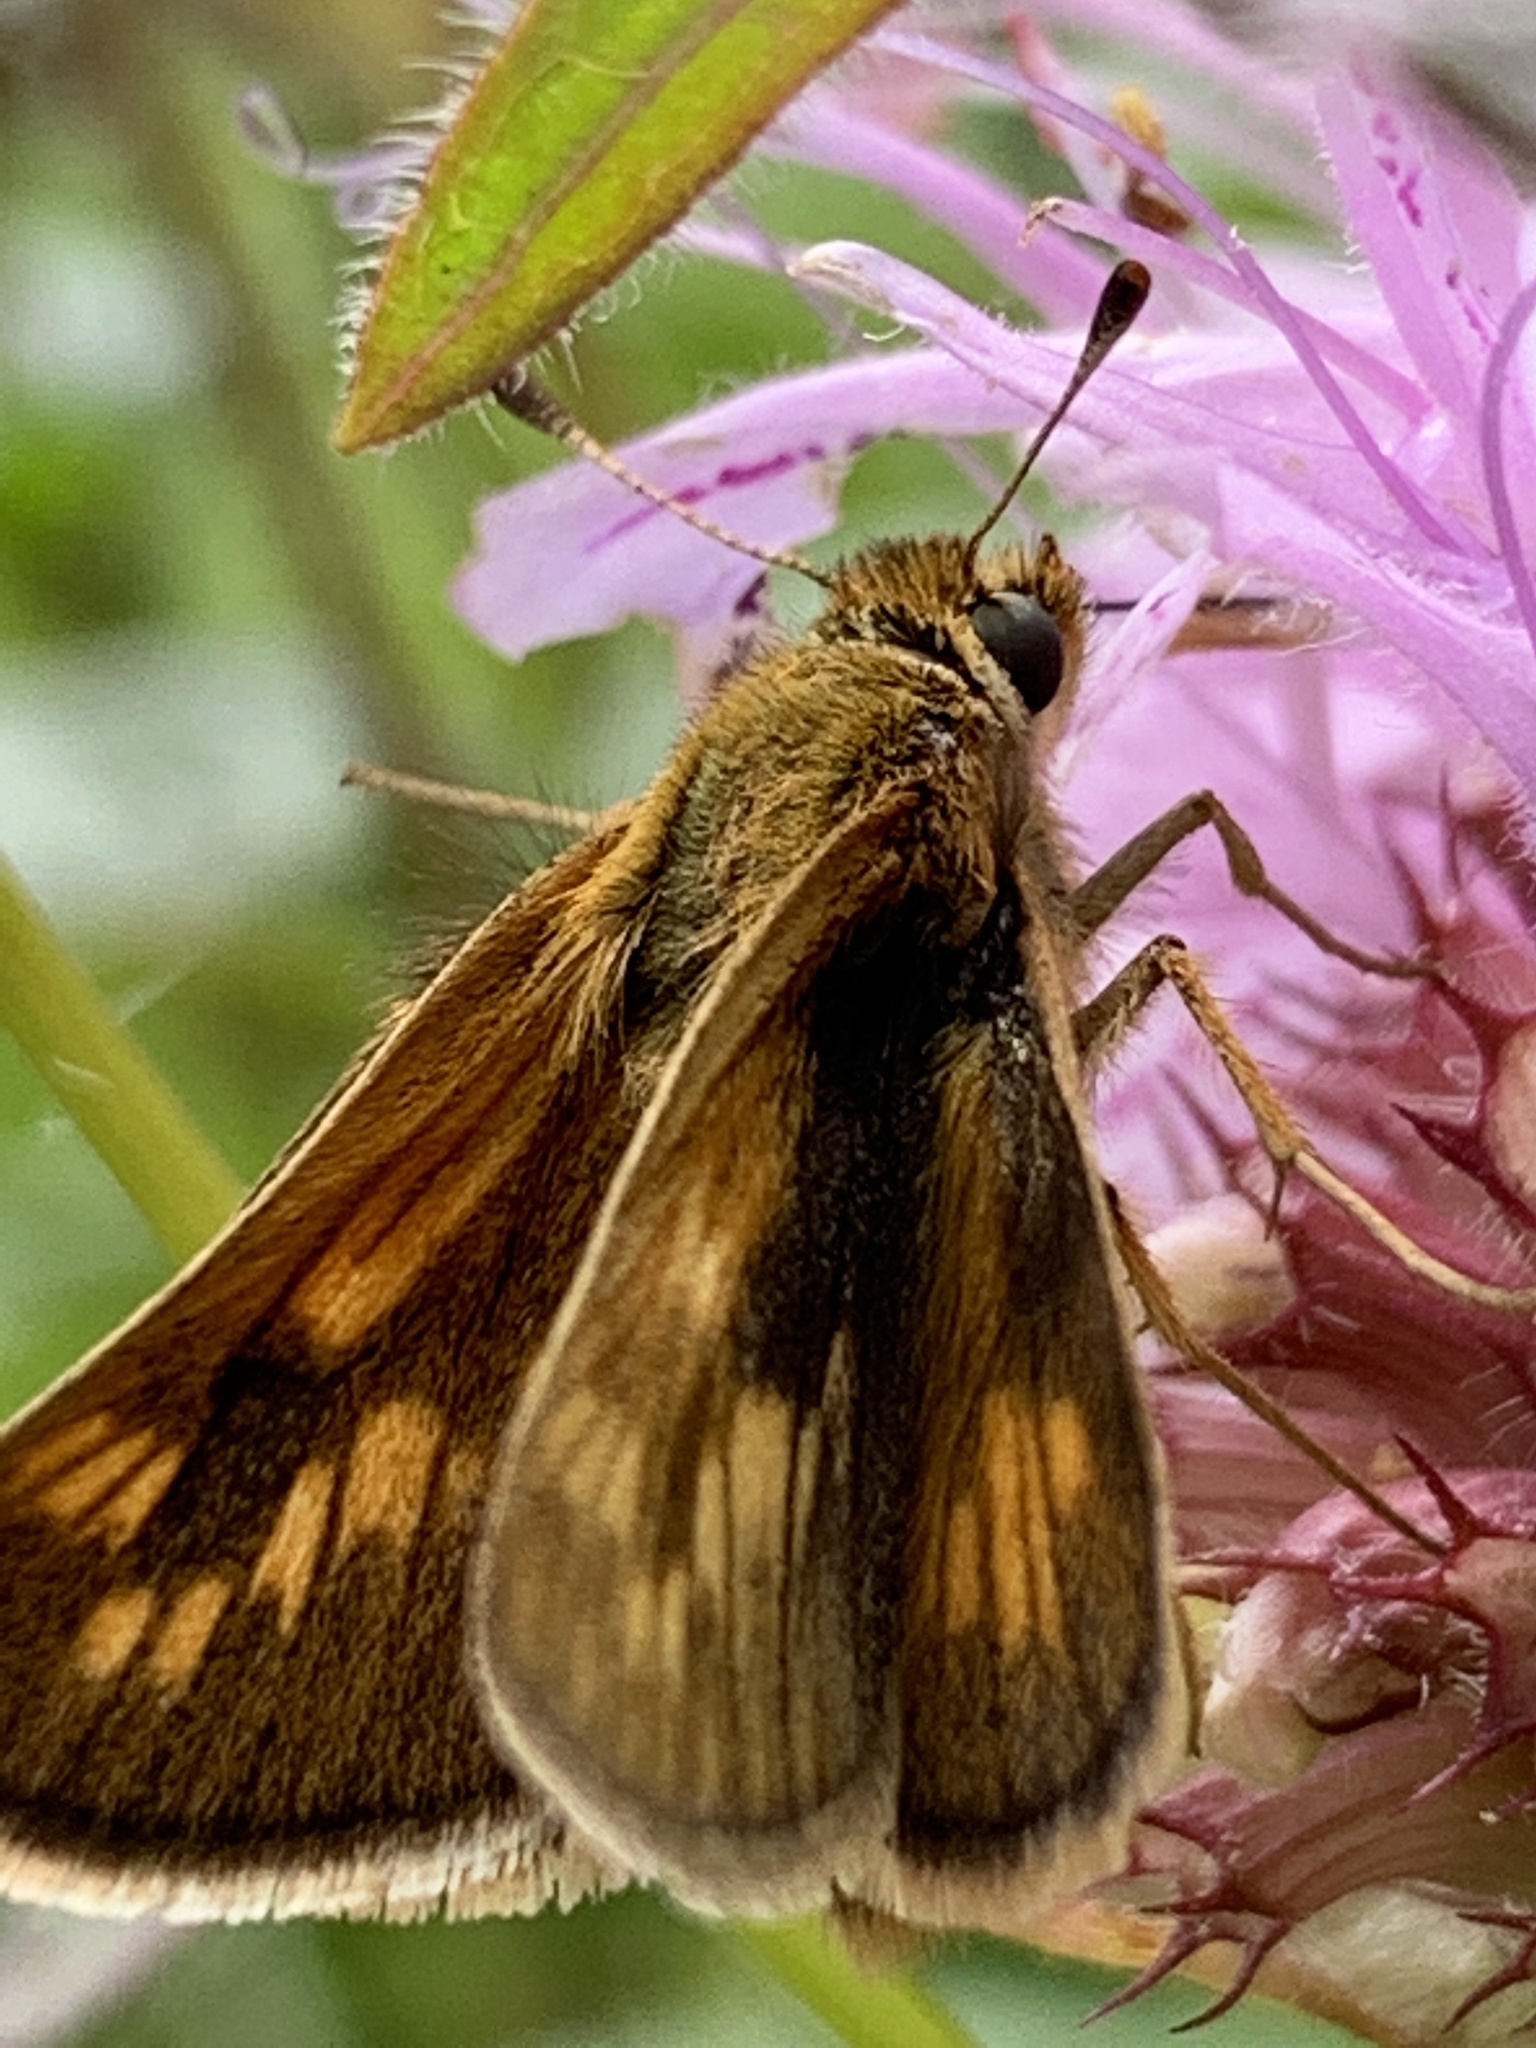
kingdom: Animalia
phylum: Arthropoda
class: Insecta
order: Lepidoptera
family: Hesperiidae
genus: Polites
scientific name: Polites coras
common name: Peck's skipper
